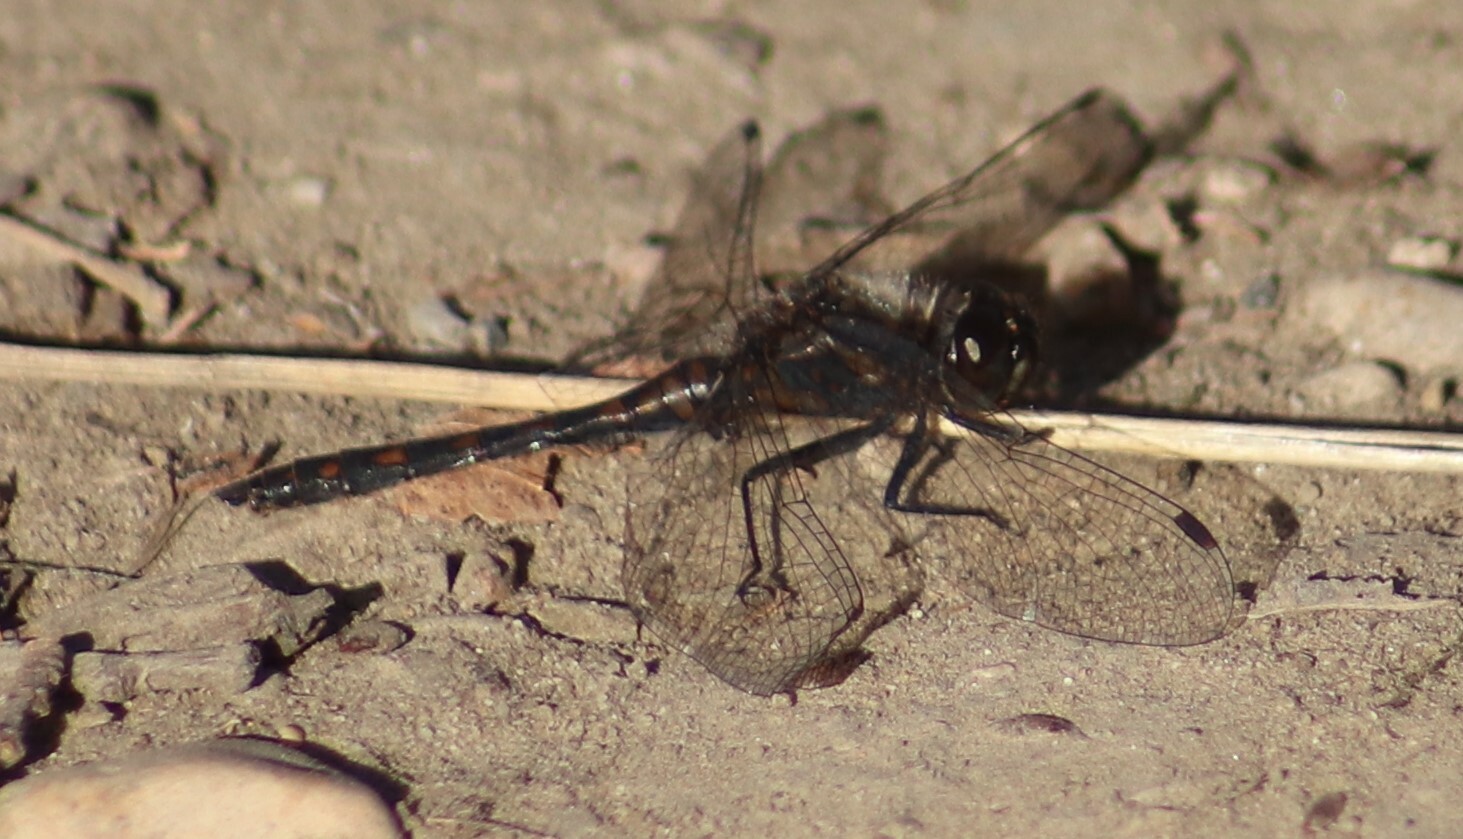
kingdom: Animalia
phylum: Arthropoda
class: Insecta
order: Odonata
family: Libellulidae
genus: Sympetrum
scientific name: Sympetrum danae
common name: Black darter
